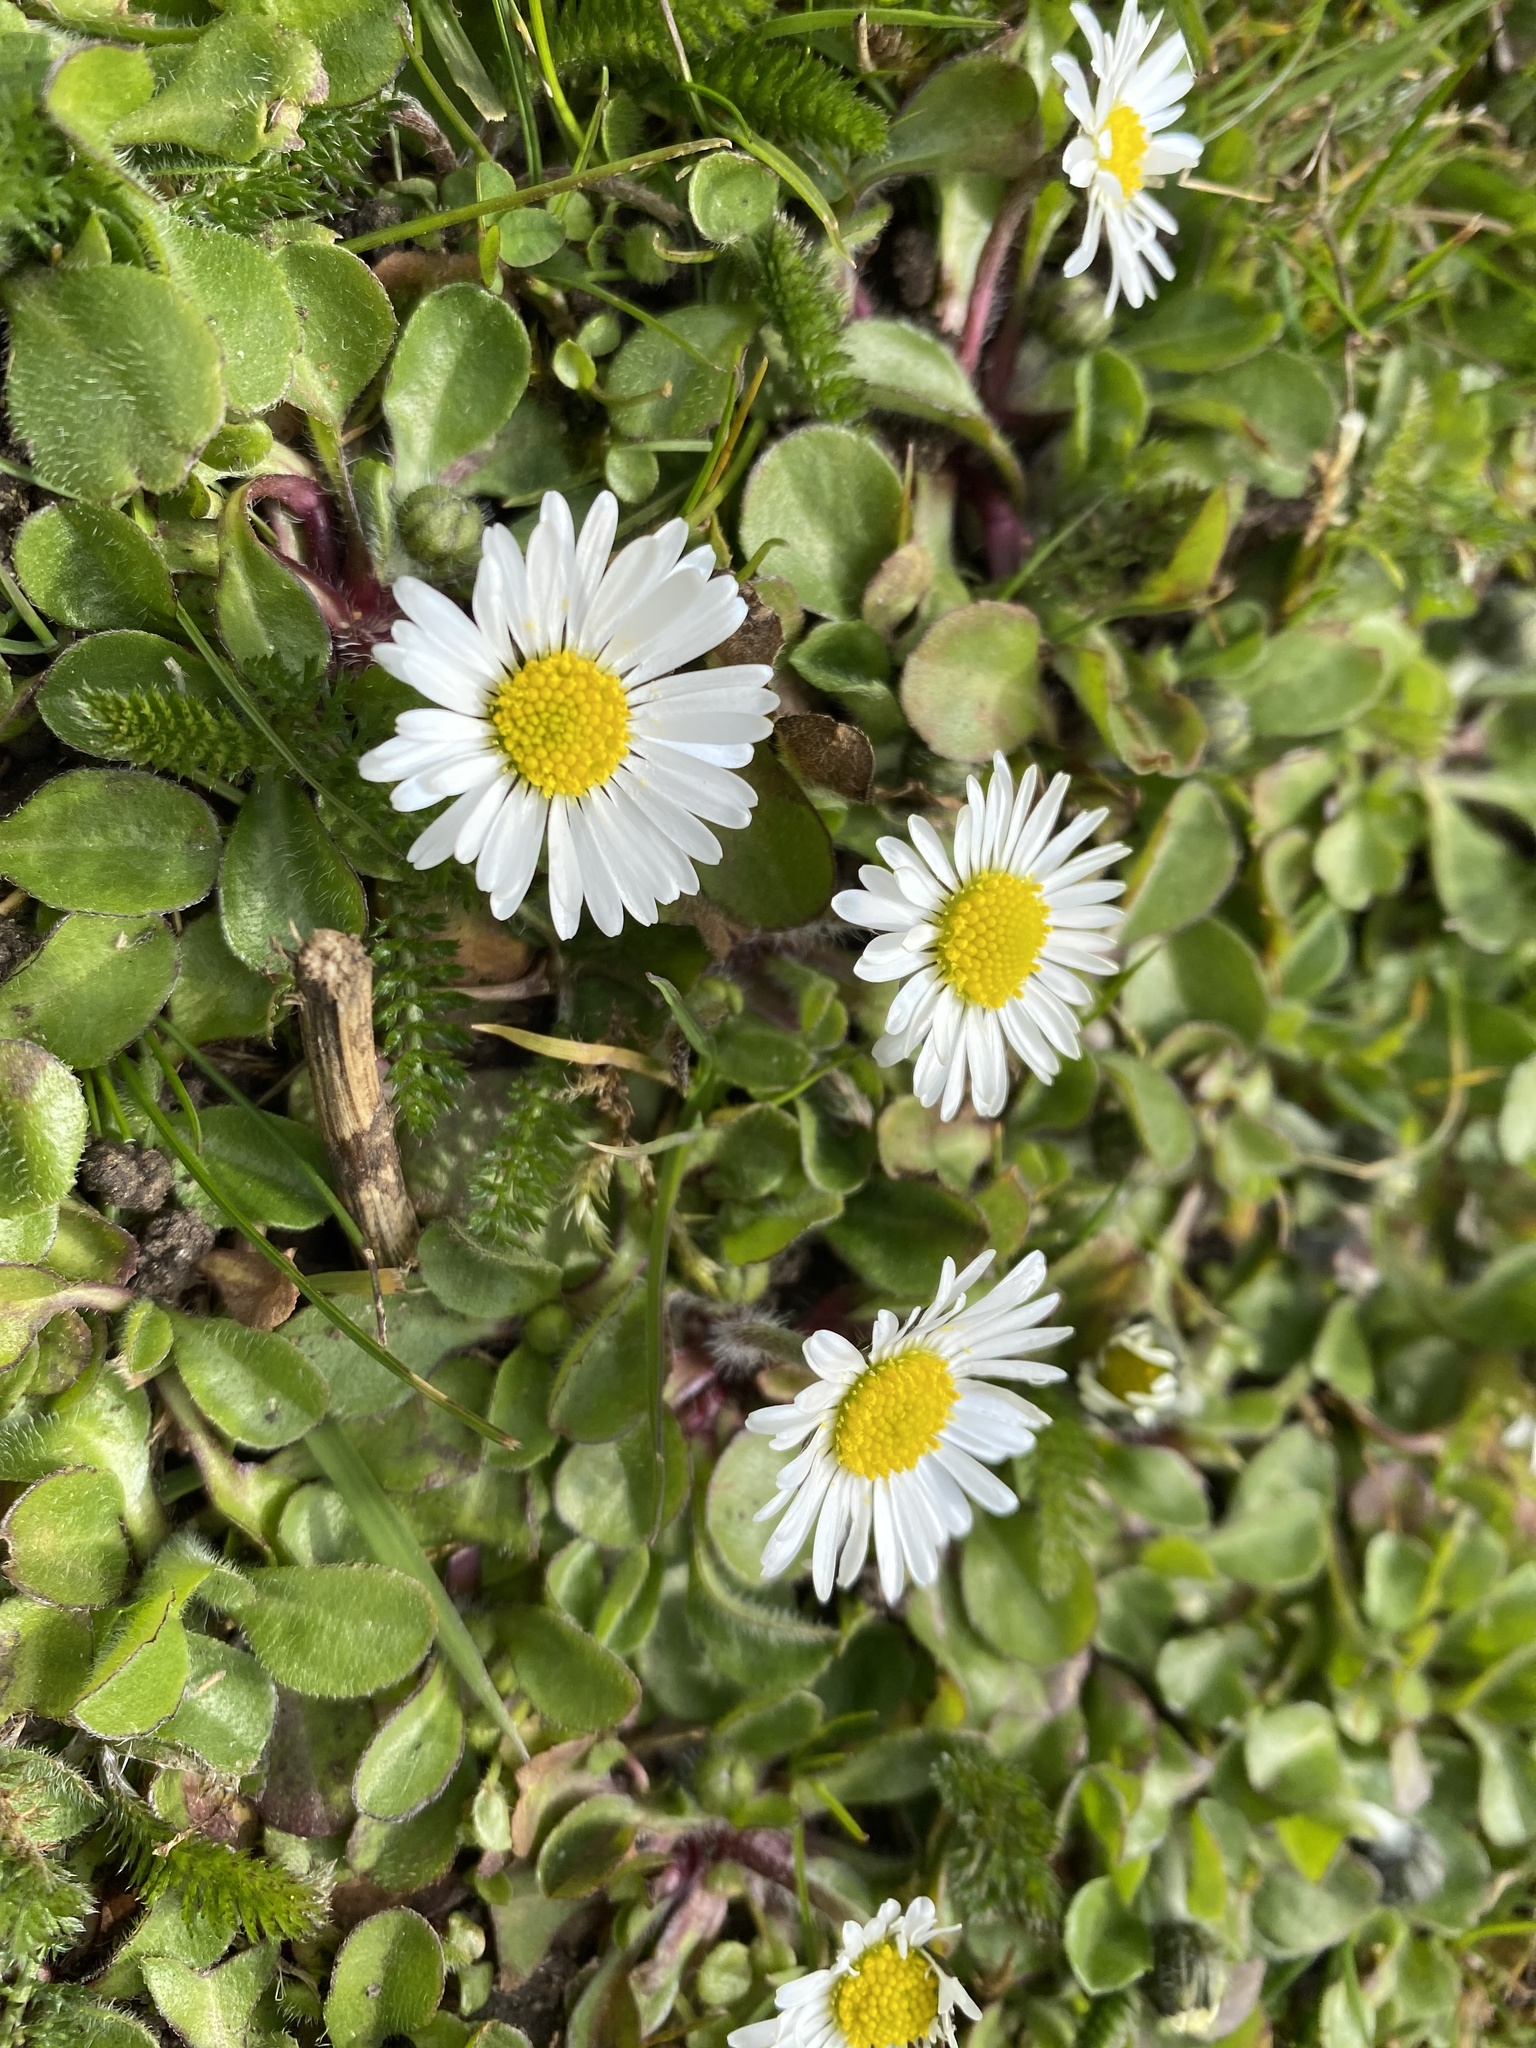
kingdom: Plantae
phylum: Tracheophyta
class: Magnoliopsida
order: Asterales
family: Asteraceae
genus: Bellis
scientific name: Bellis perennis
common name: Lawndaisy
